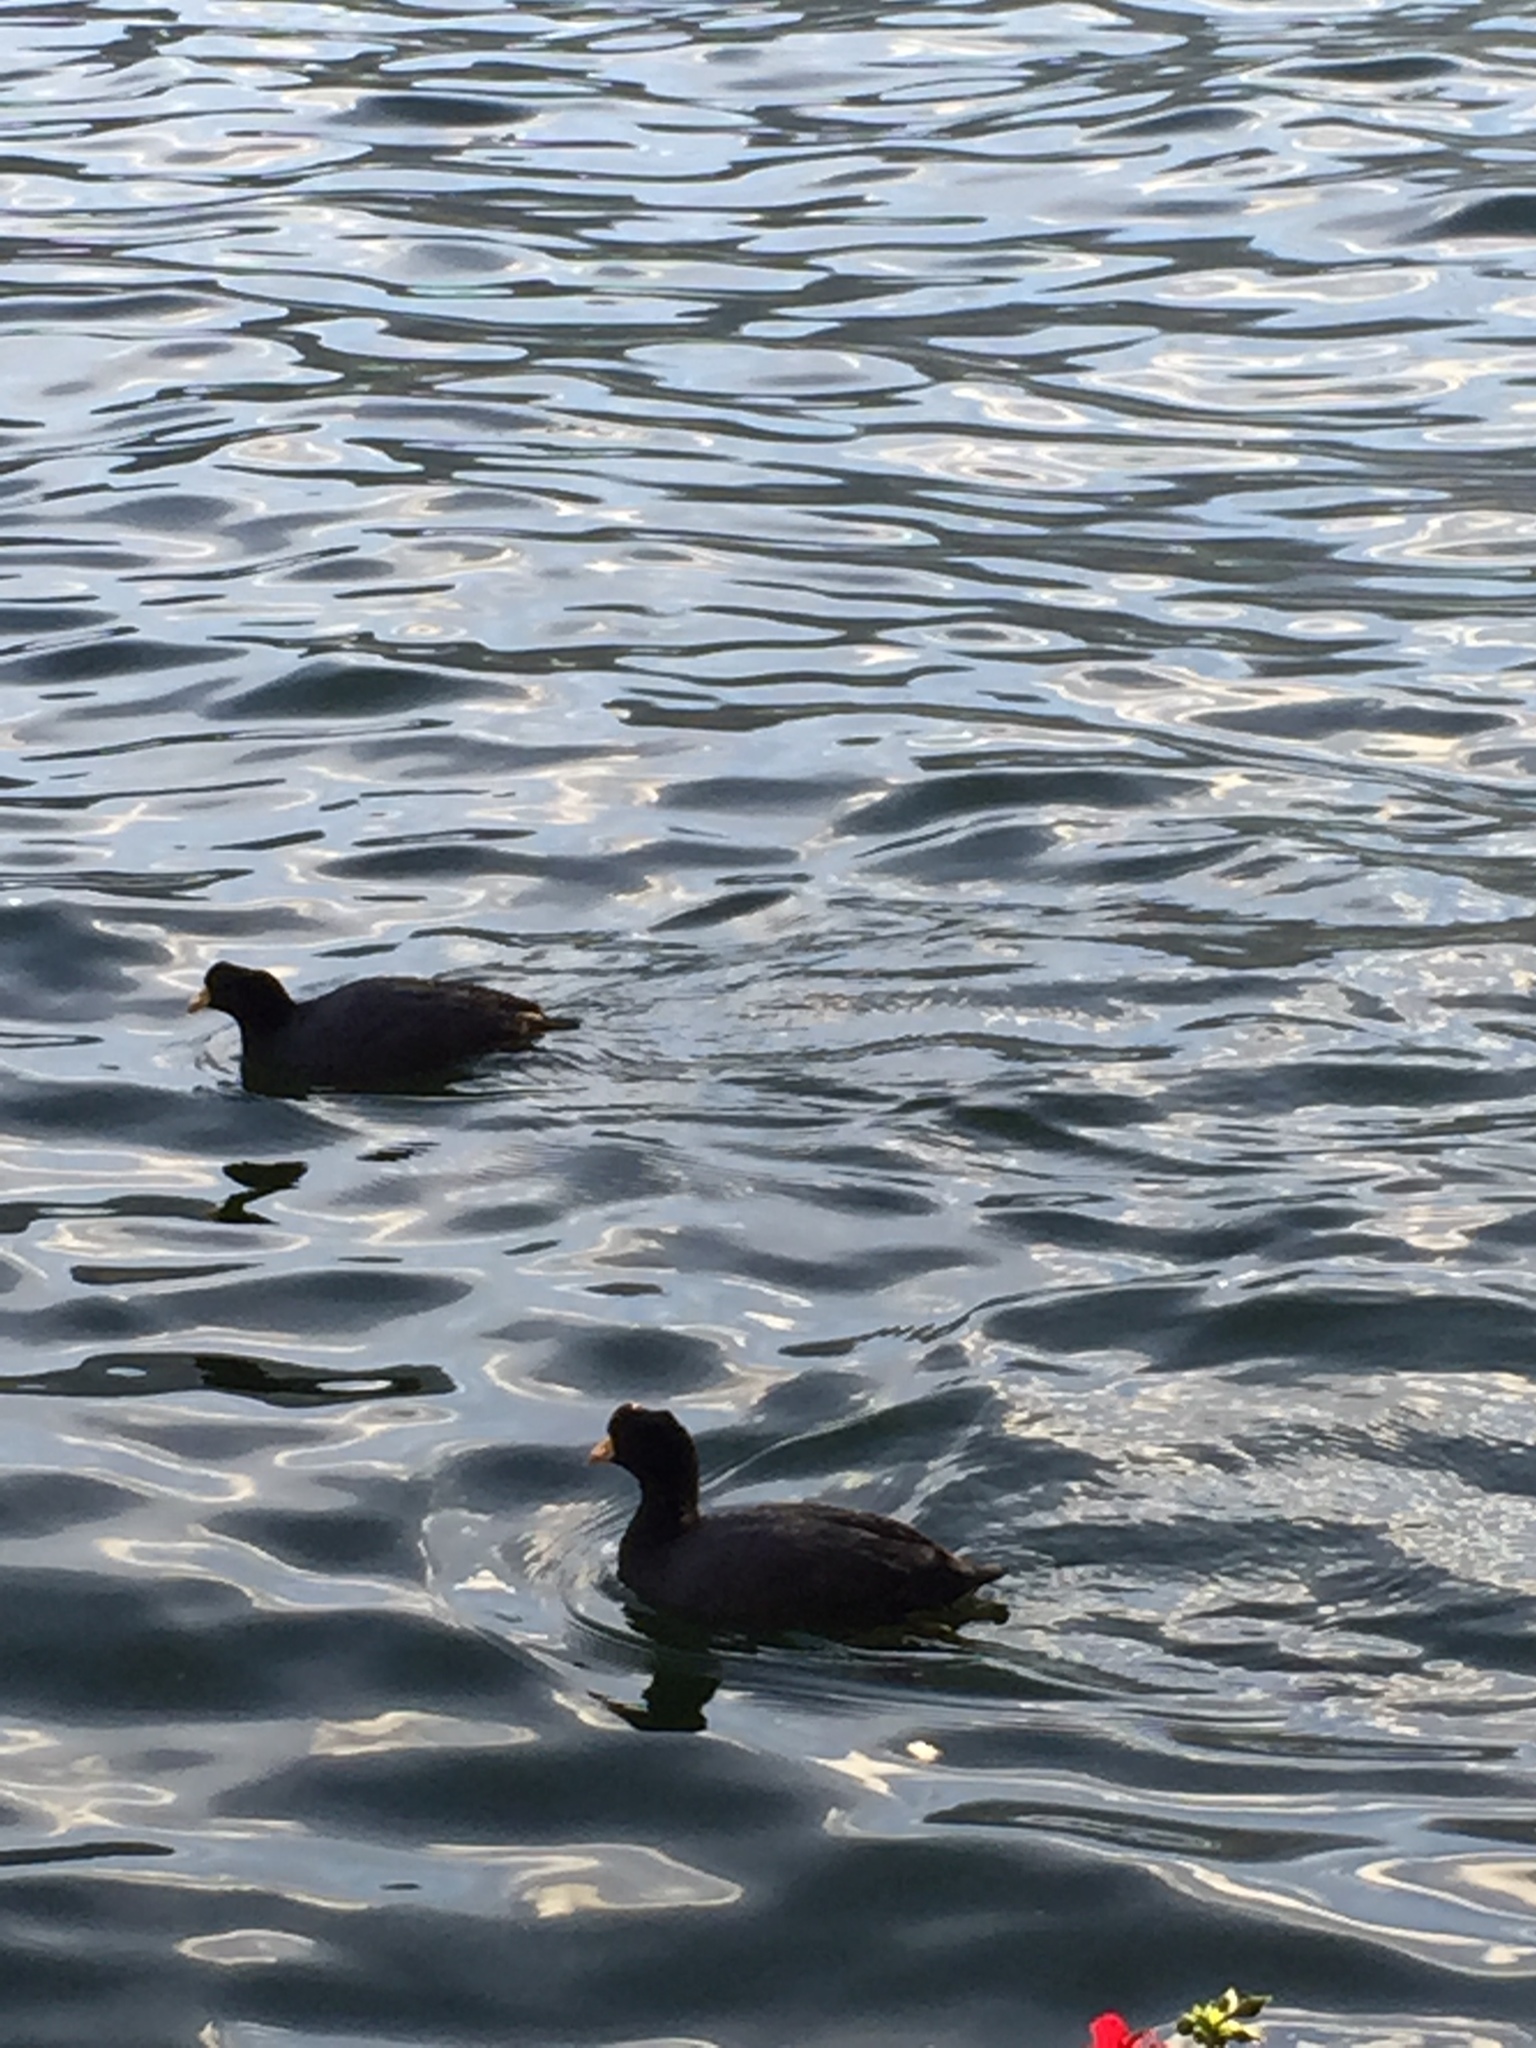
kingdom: Animalia
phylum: Chordata
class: Aves
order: Gruiformes
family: Rallidae
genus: Fulica
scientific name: Fulica ardesiaca
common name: Andean coot
